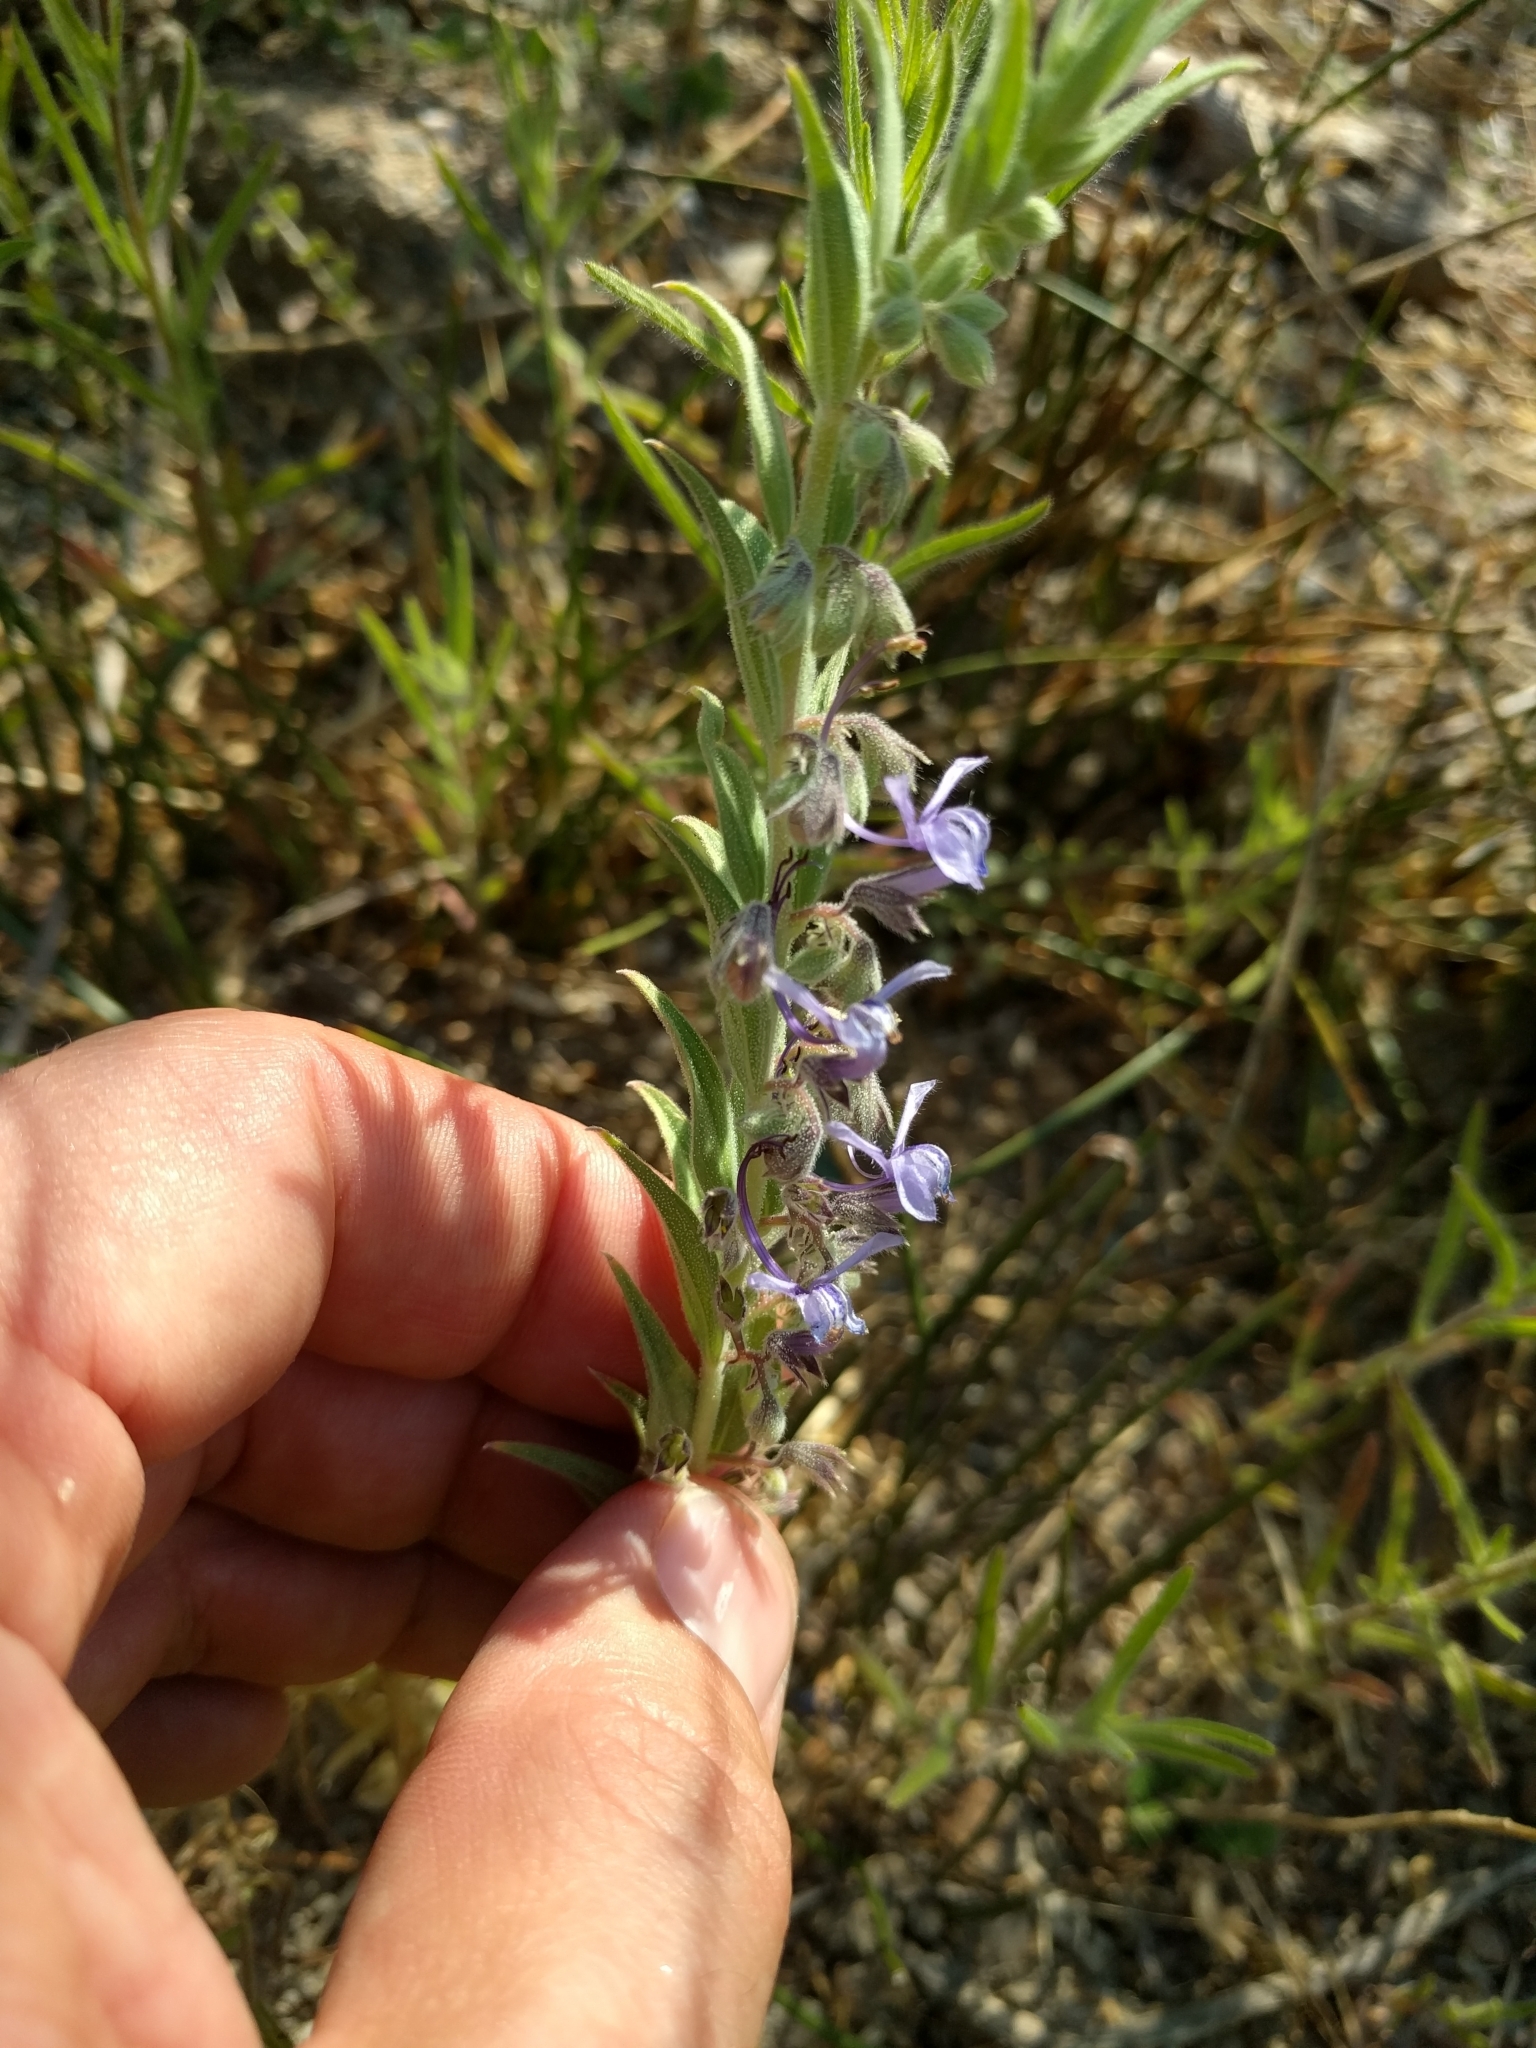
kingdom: Plantae
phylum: Tracheophyta
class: Magnoliopsida
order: Lamiales
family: Lamiaceae
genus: Trichostema
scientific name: Trichostema lanceolatum
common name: Vinegar-weed
